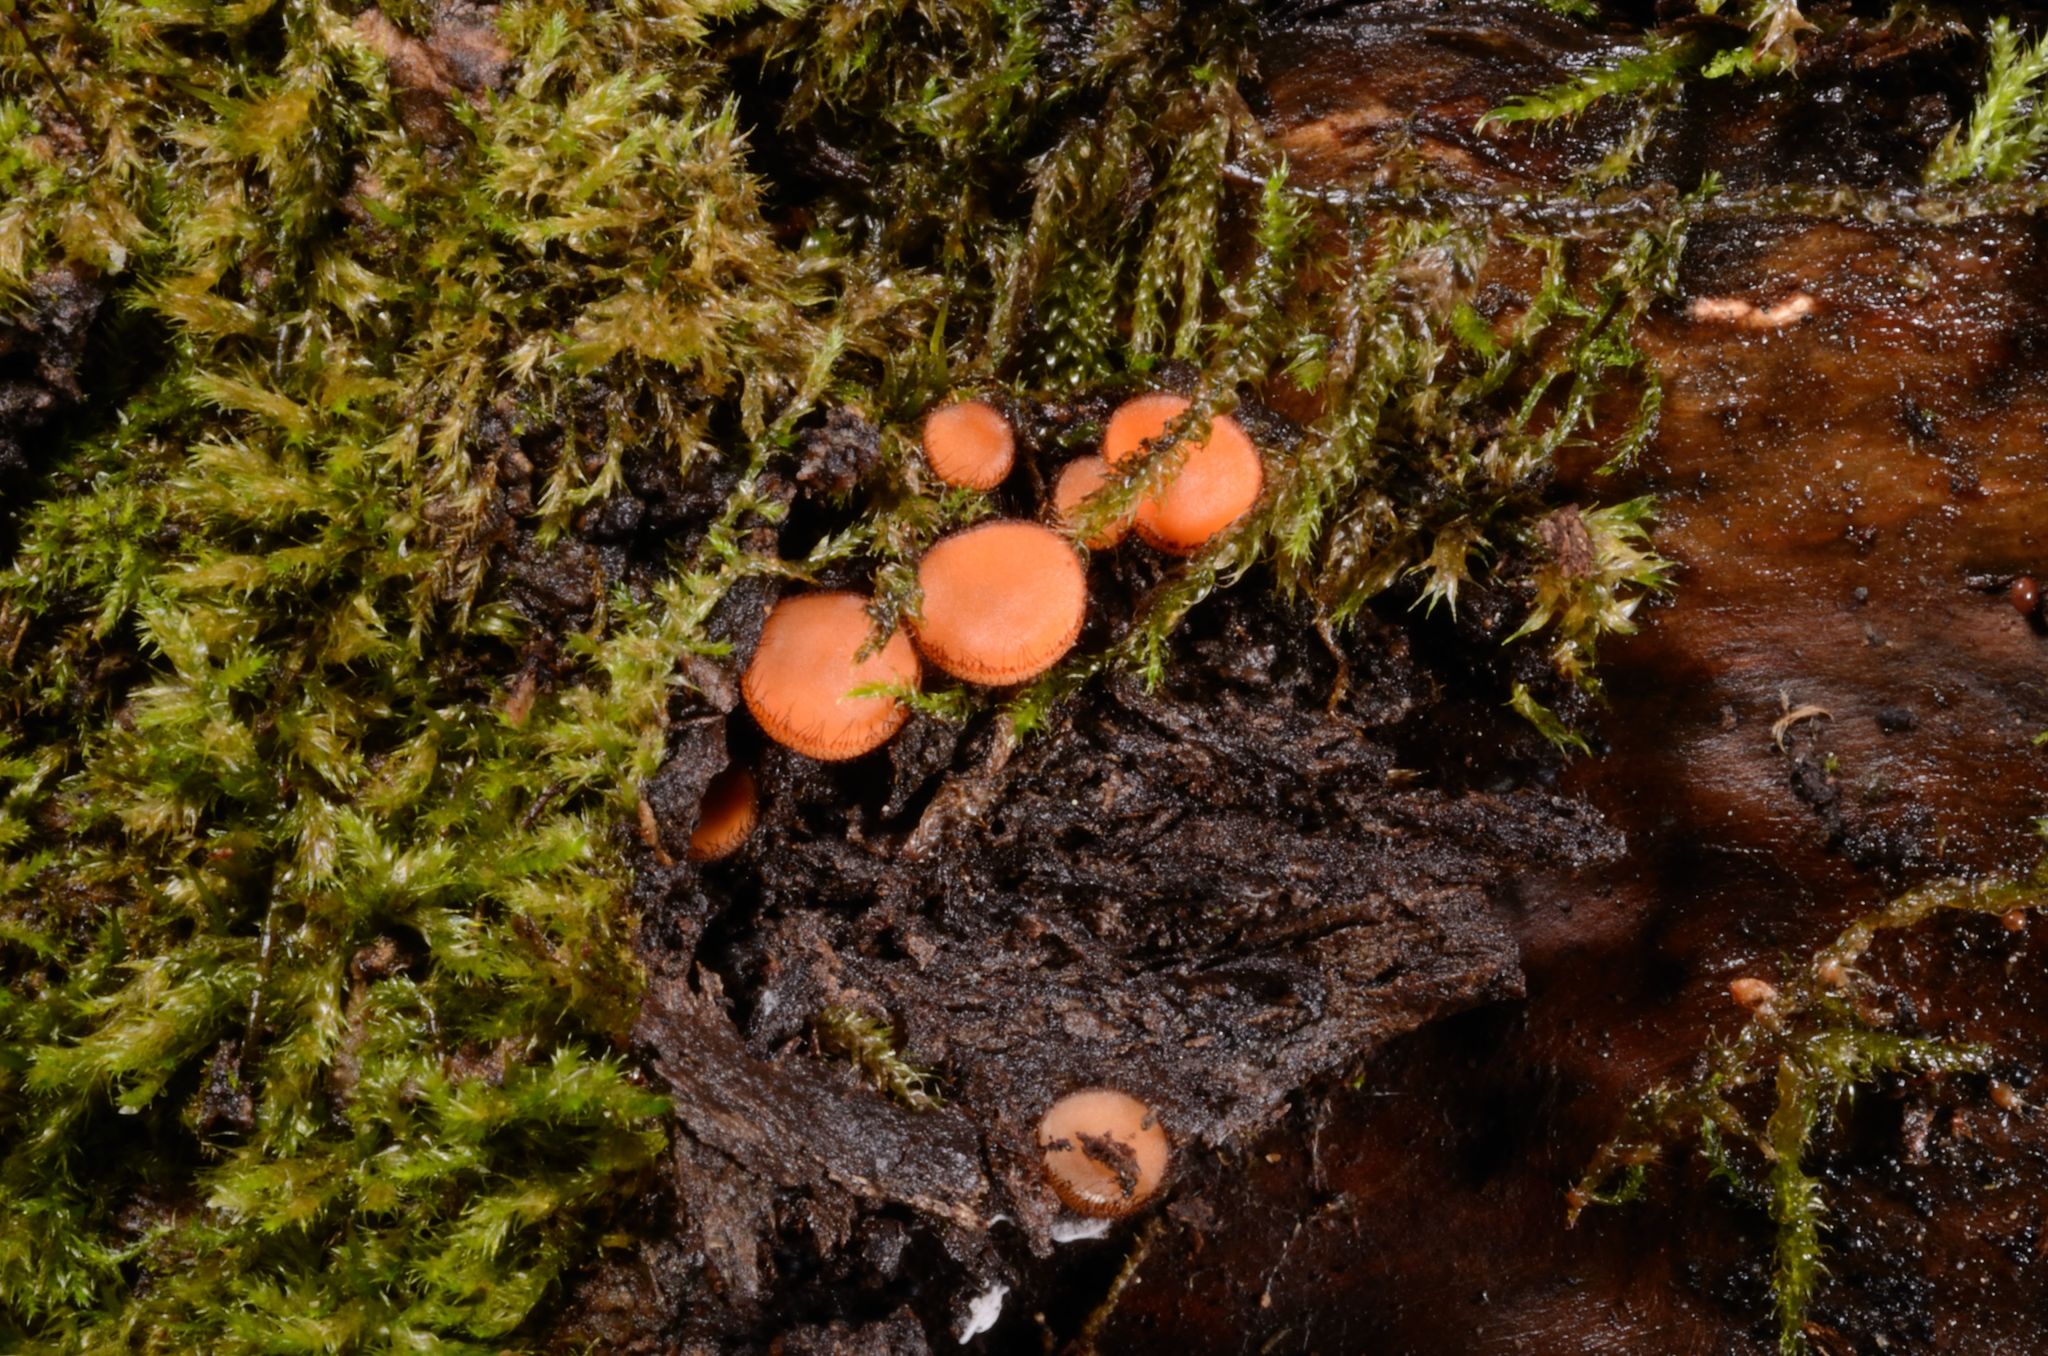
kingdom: Fungi
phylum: Ascomycota
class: Pezizomycetes
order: Pezizales
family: Pyronemataceae
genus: Scutellinia
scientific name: Scutellinia
